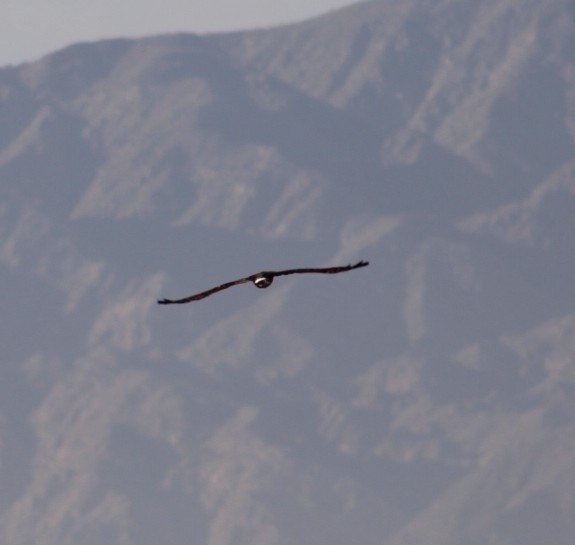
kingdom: Animalia
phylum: Chordata
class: Aves
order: Accipitriformes
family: Accipitridae
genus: Circus
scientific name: Circus cyaneus
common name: Hen harrier
